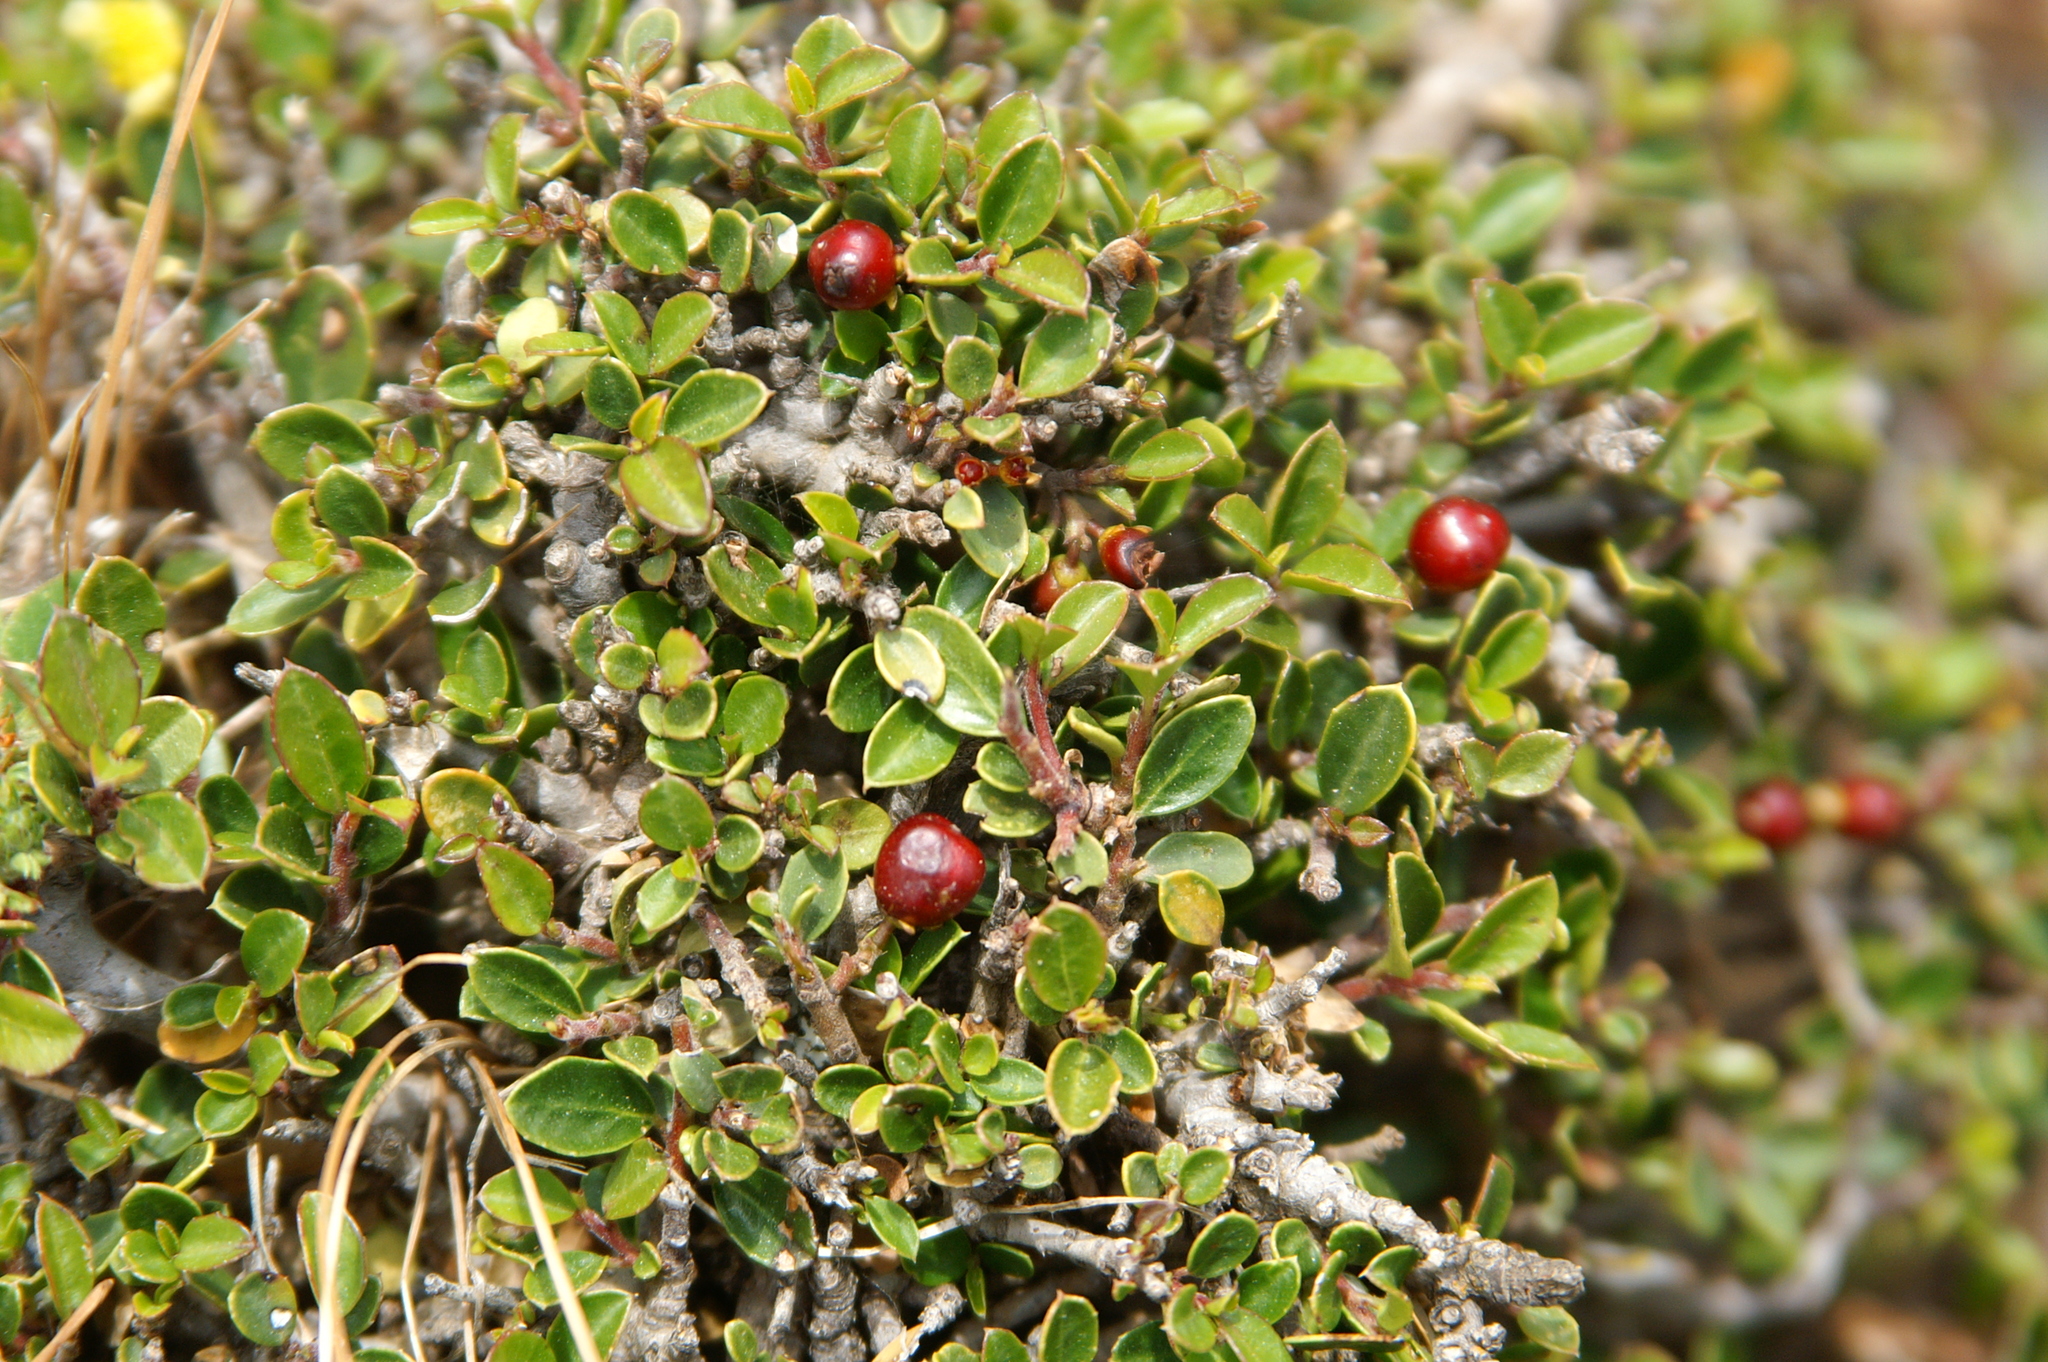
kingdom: Plantae
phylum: Tracheophyta
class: Magnoliopsida
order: Rosales
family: Rhamnaceae
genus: Rhamnus
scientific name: Rhamnus myrtifolia
